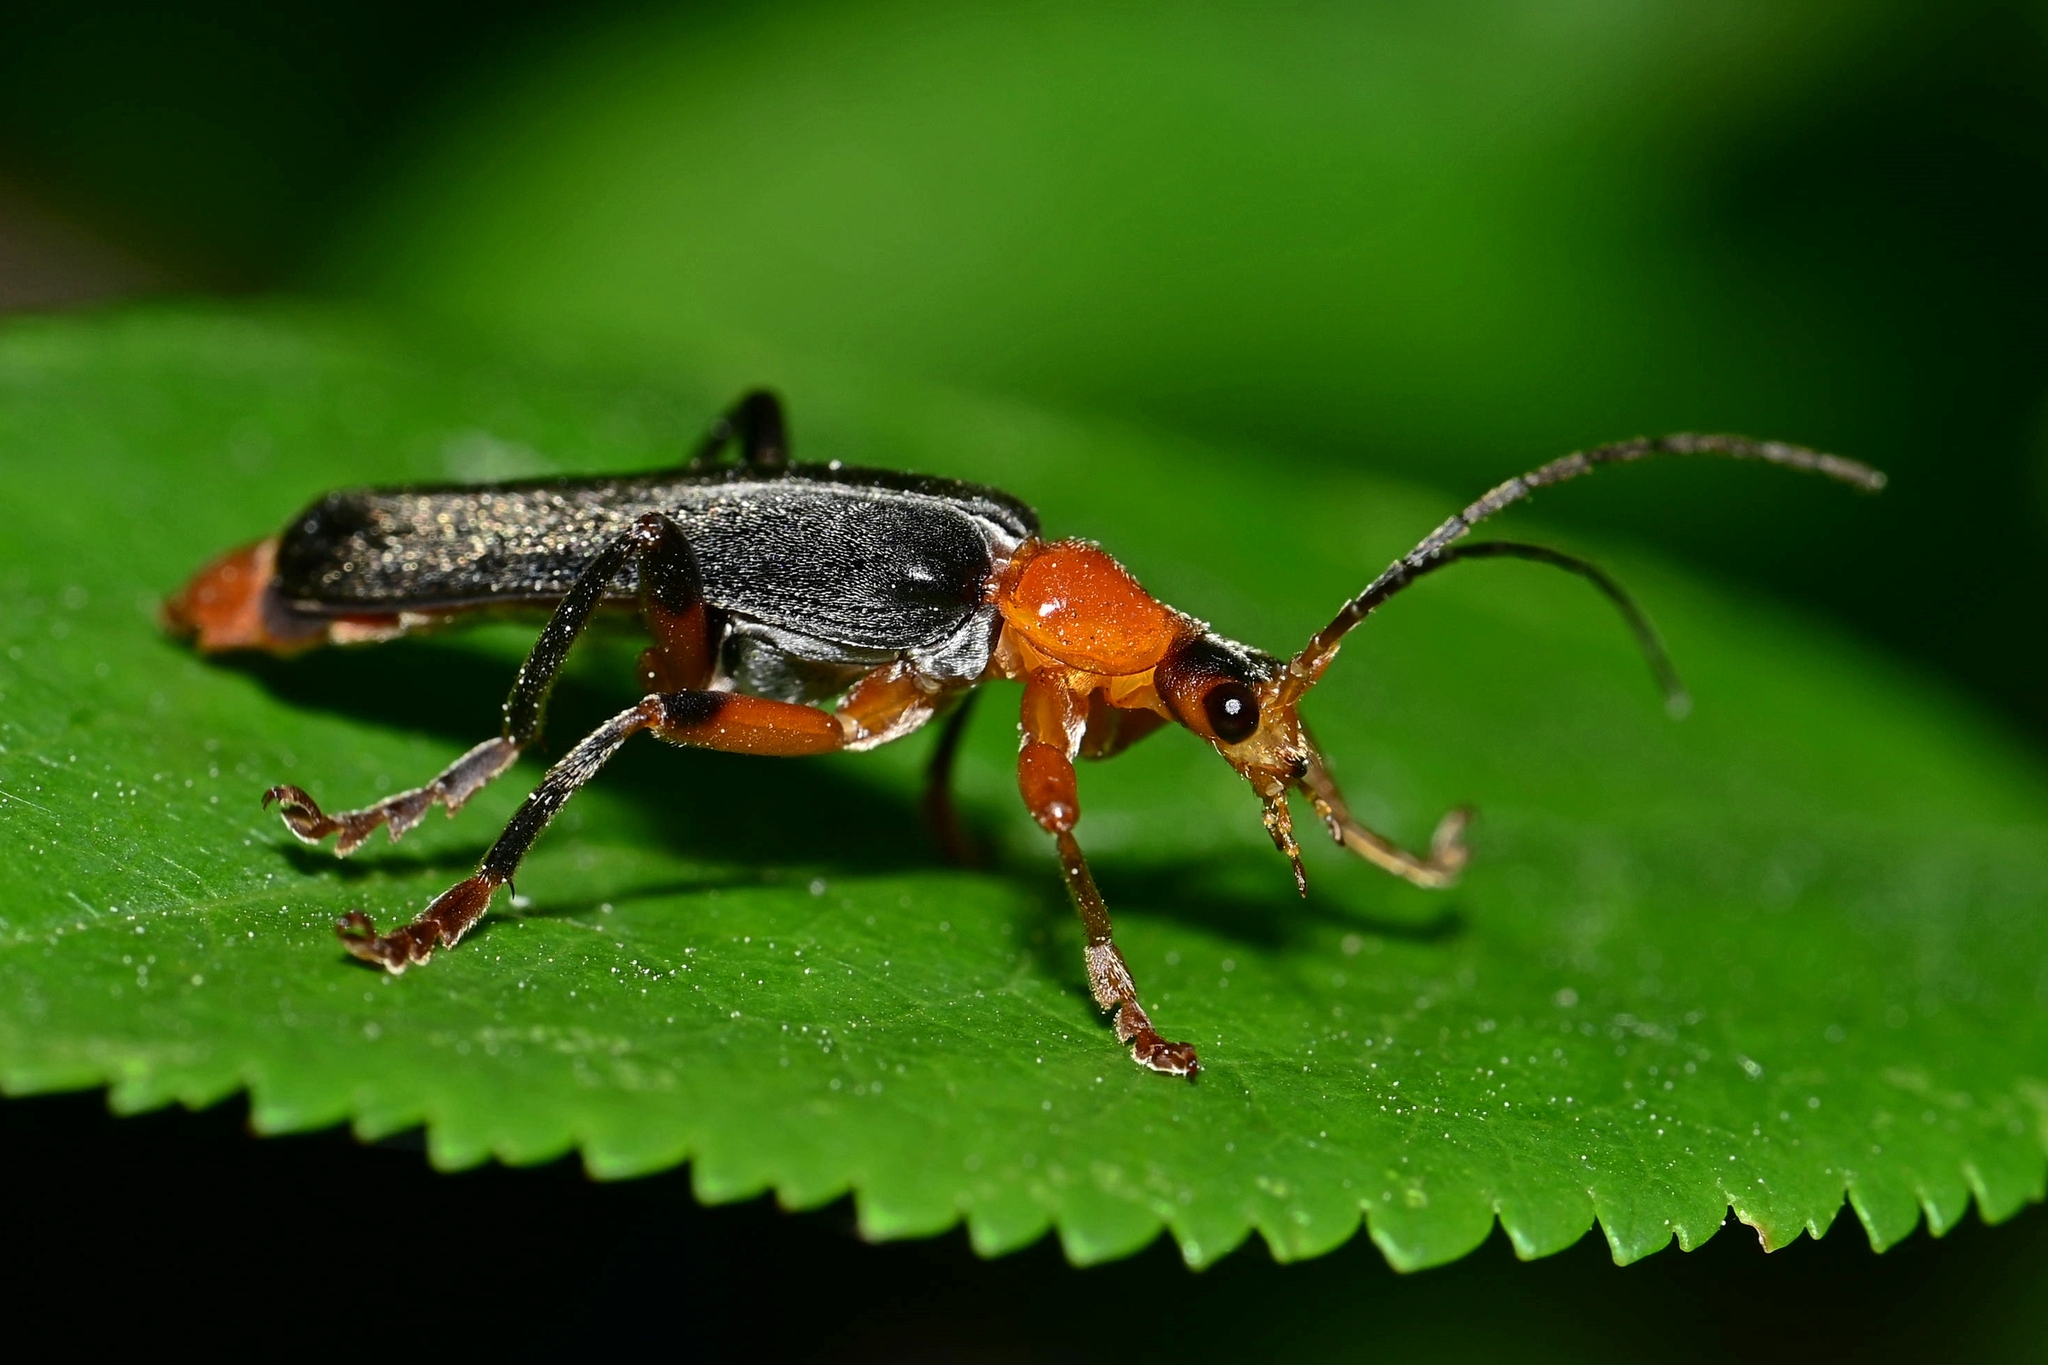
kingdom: Animalia
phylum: Arthropoda
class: Insecta
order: Coleoptera
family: Cantharidae
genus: Cantharis
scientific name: Cantharis livida
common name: Livid soldier beetle
